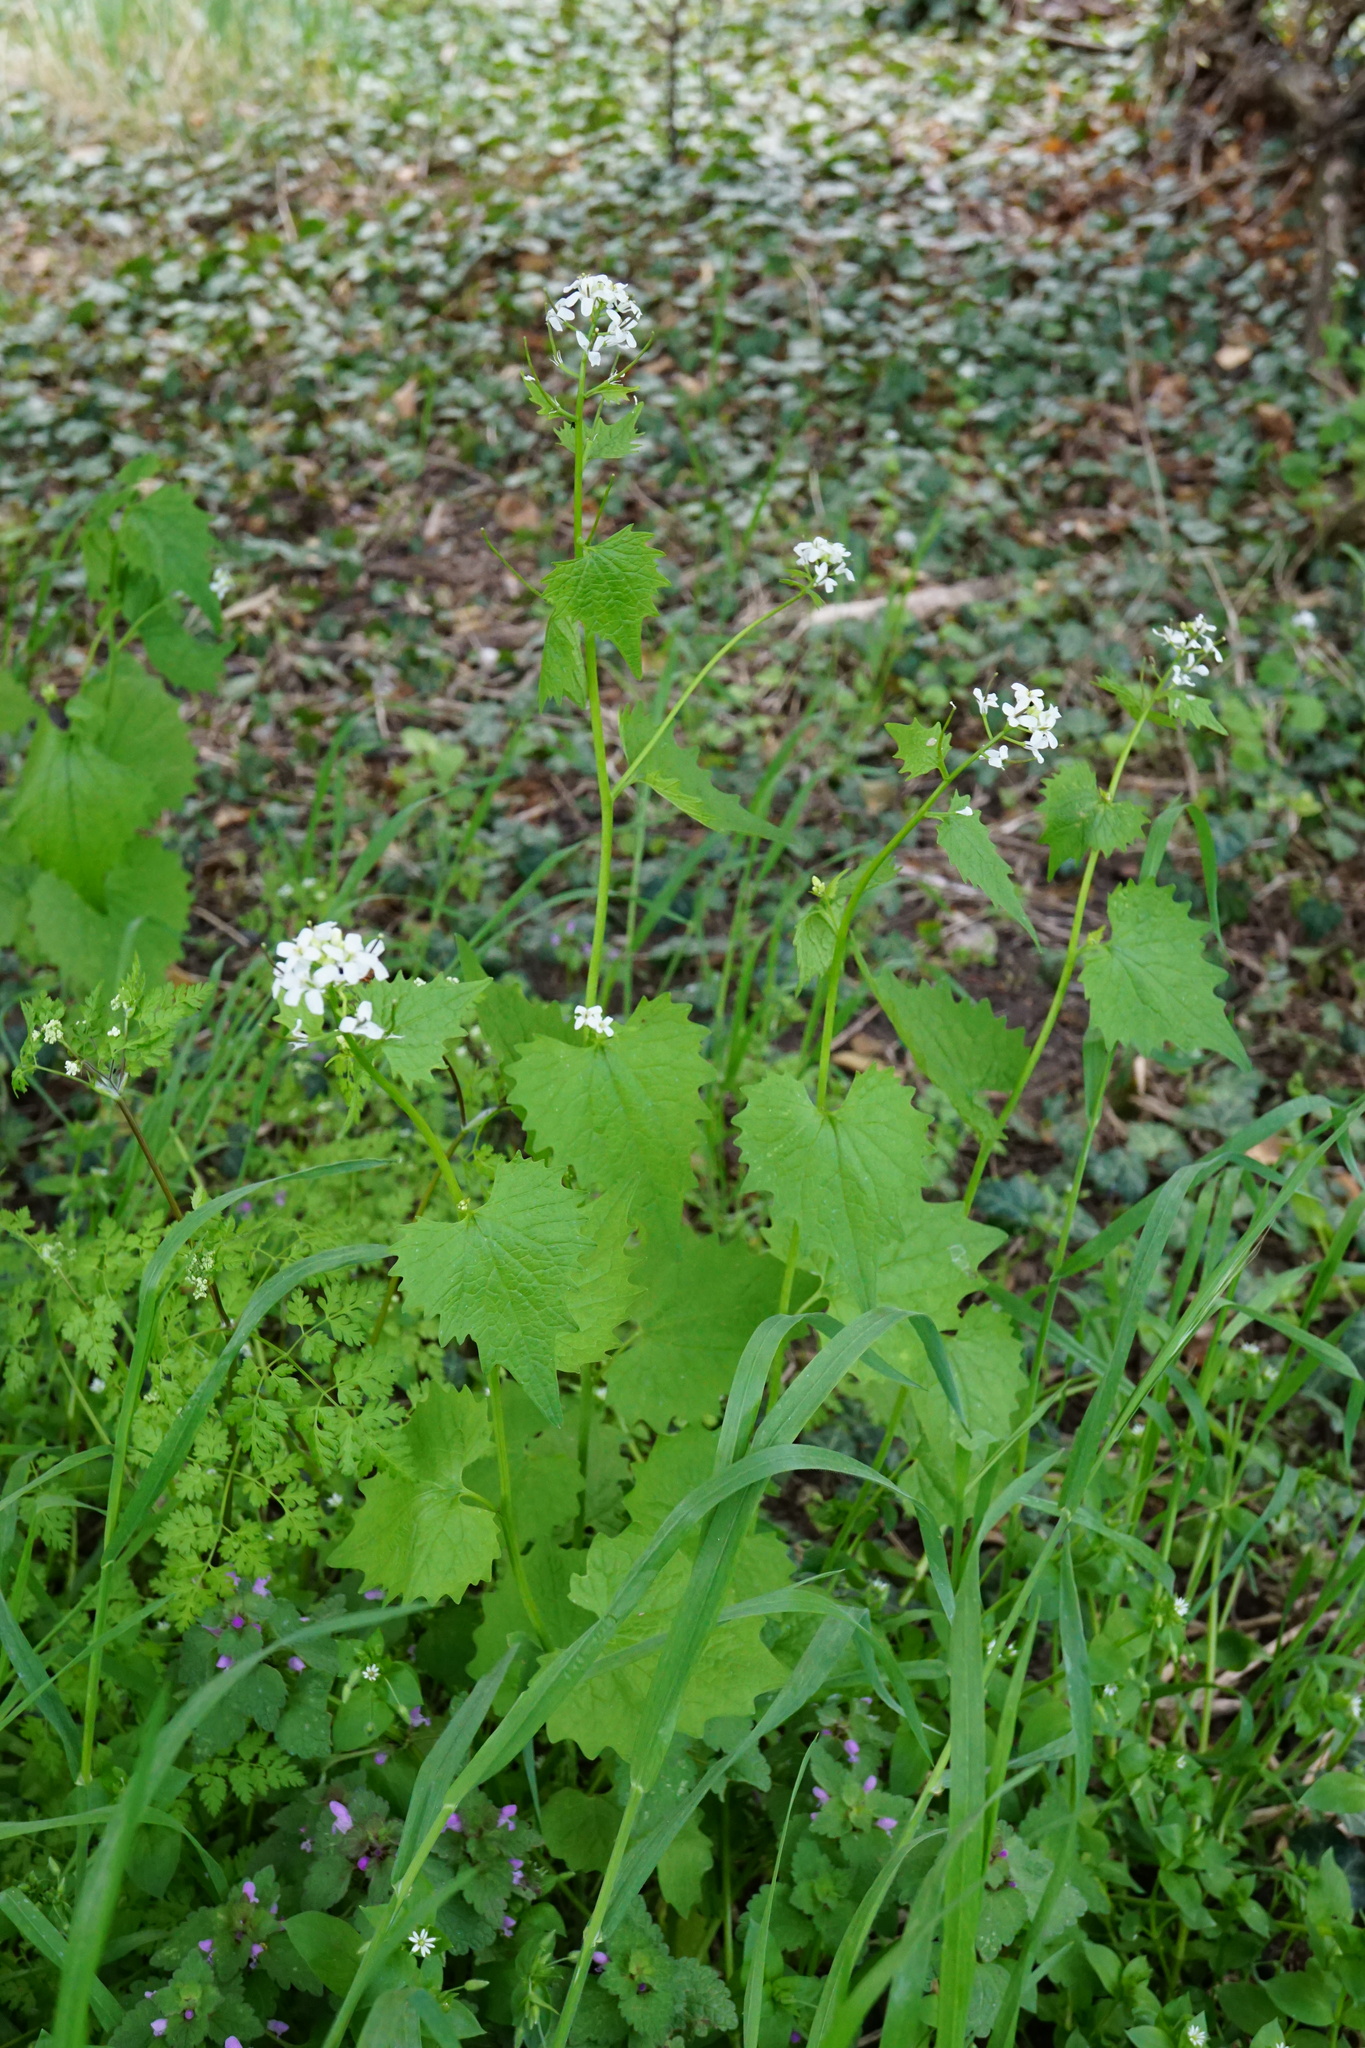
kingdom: Plantae
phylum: Tracheophyta
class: Magnoliopsida
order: Brassicales
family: Brassicaceae
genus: Alliaria
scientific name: Alliaria petiolata
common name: Garlic mustard
